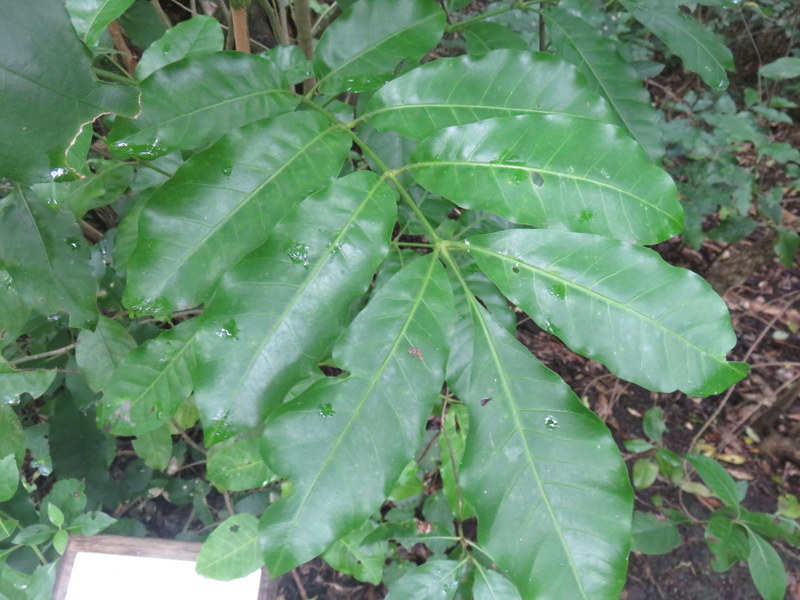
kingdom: Plantae
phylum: Tracheophyta
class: Magnoliopsida
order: Sapindales
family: Meliaceae
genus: Didymocheton
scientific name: Didymocheton spectabilis
